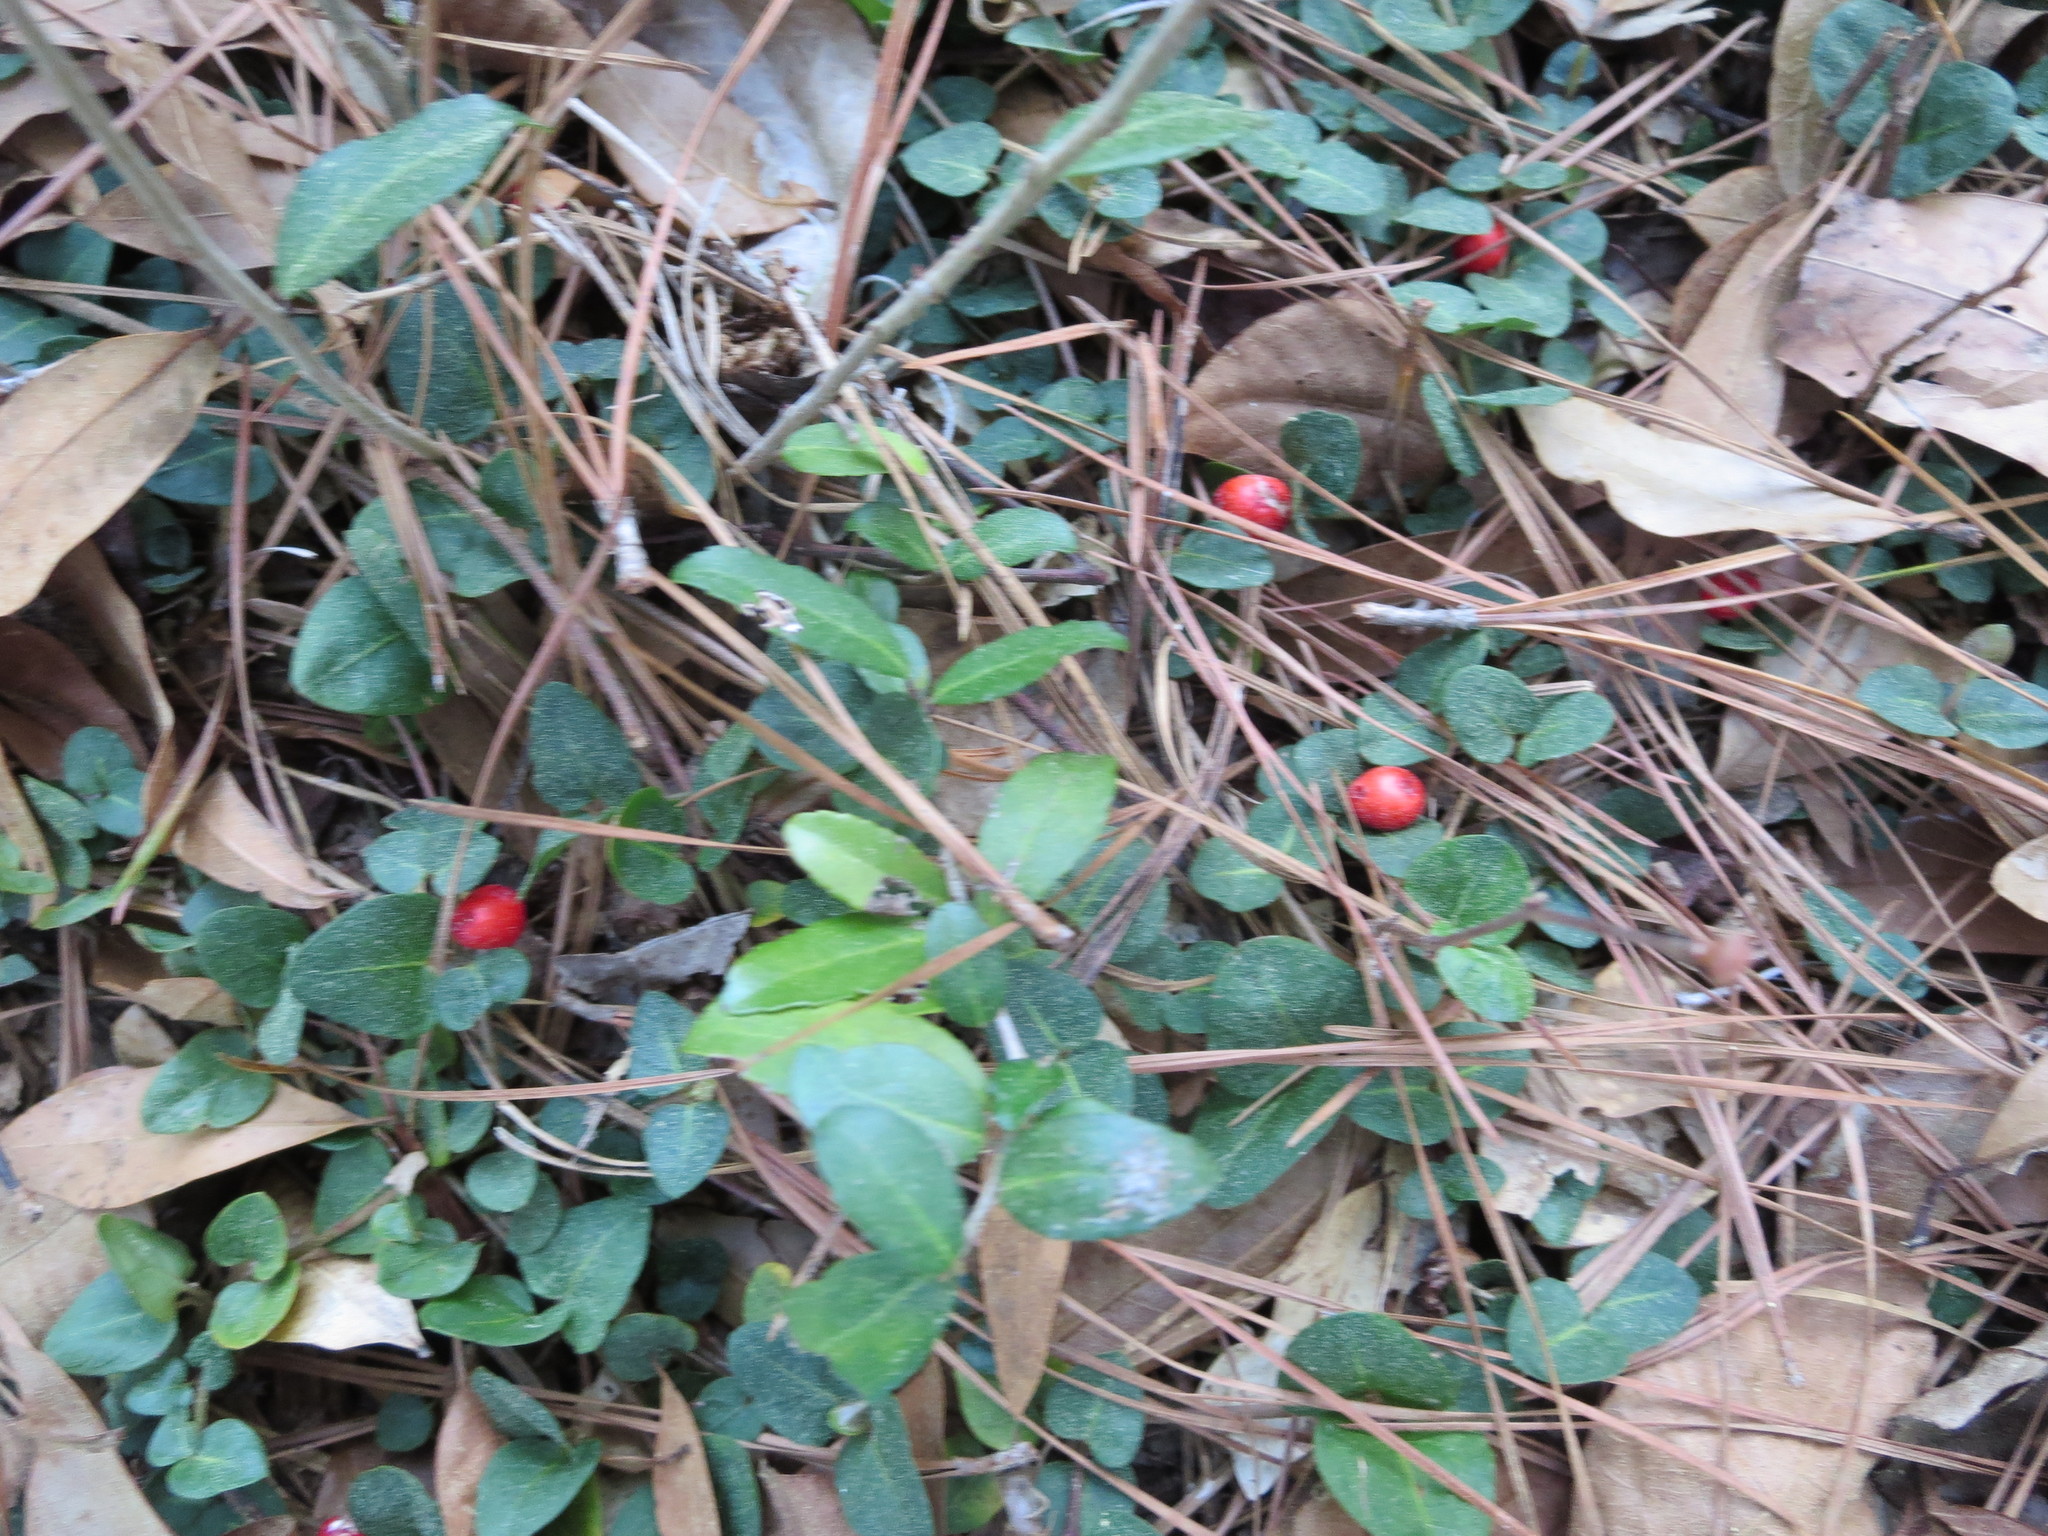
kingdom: Plantae
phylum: Tracheophyta
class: Magnoliopsida
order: Gentianales
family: Rubiaceae
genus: Mitchella
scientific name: Mitchella repens
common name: Partridge-berry
